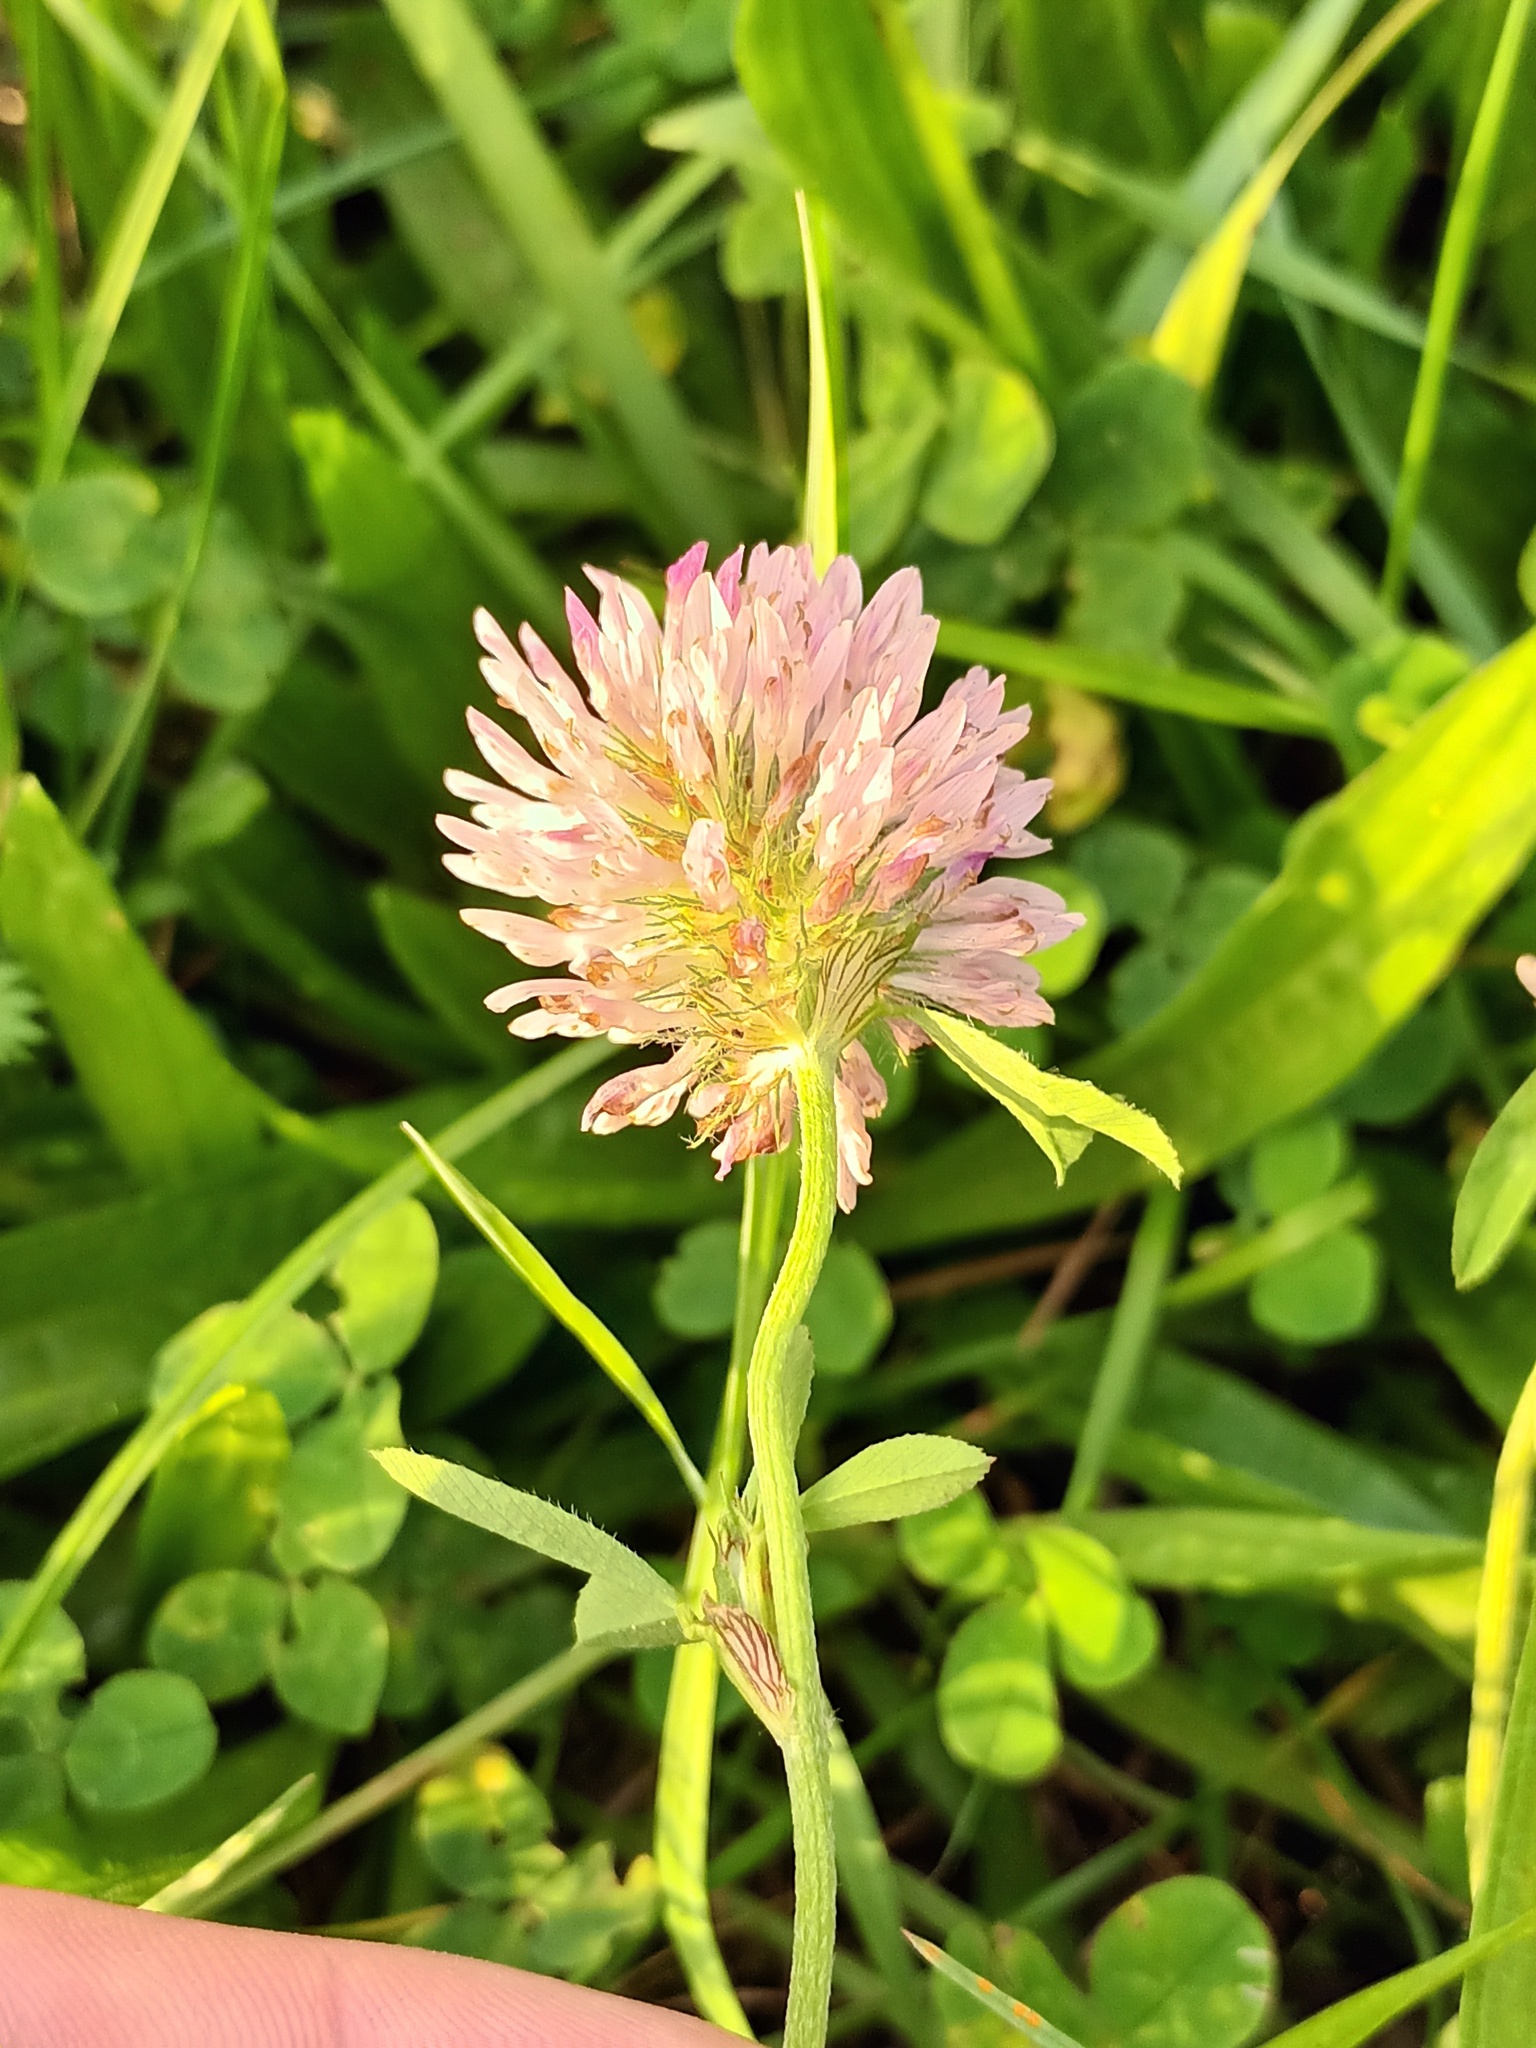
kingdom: Plantae
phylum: Tracheophyta
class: Magnoliopsida
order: Fabales
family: Fabaceae
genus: Trifolium
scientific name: Trifolium pratense
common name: Red clover
